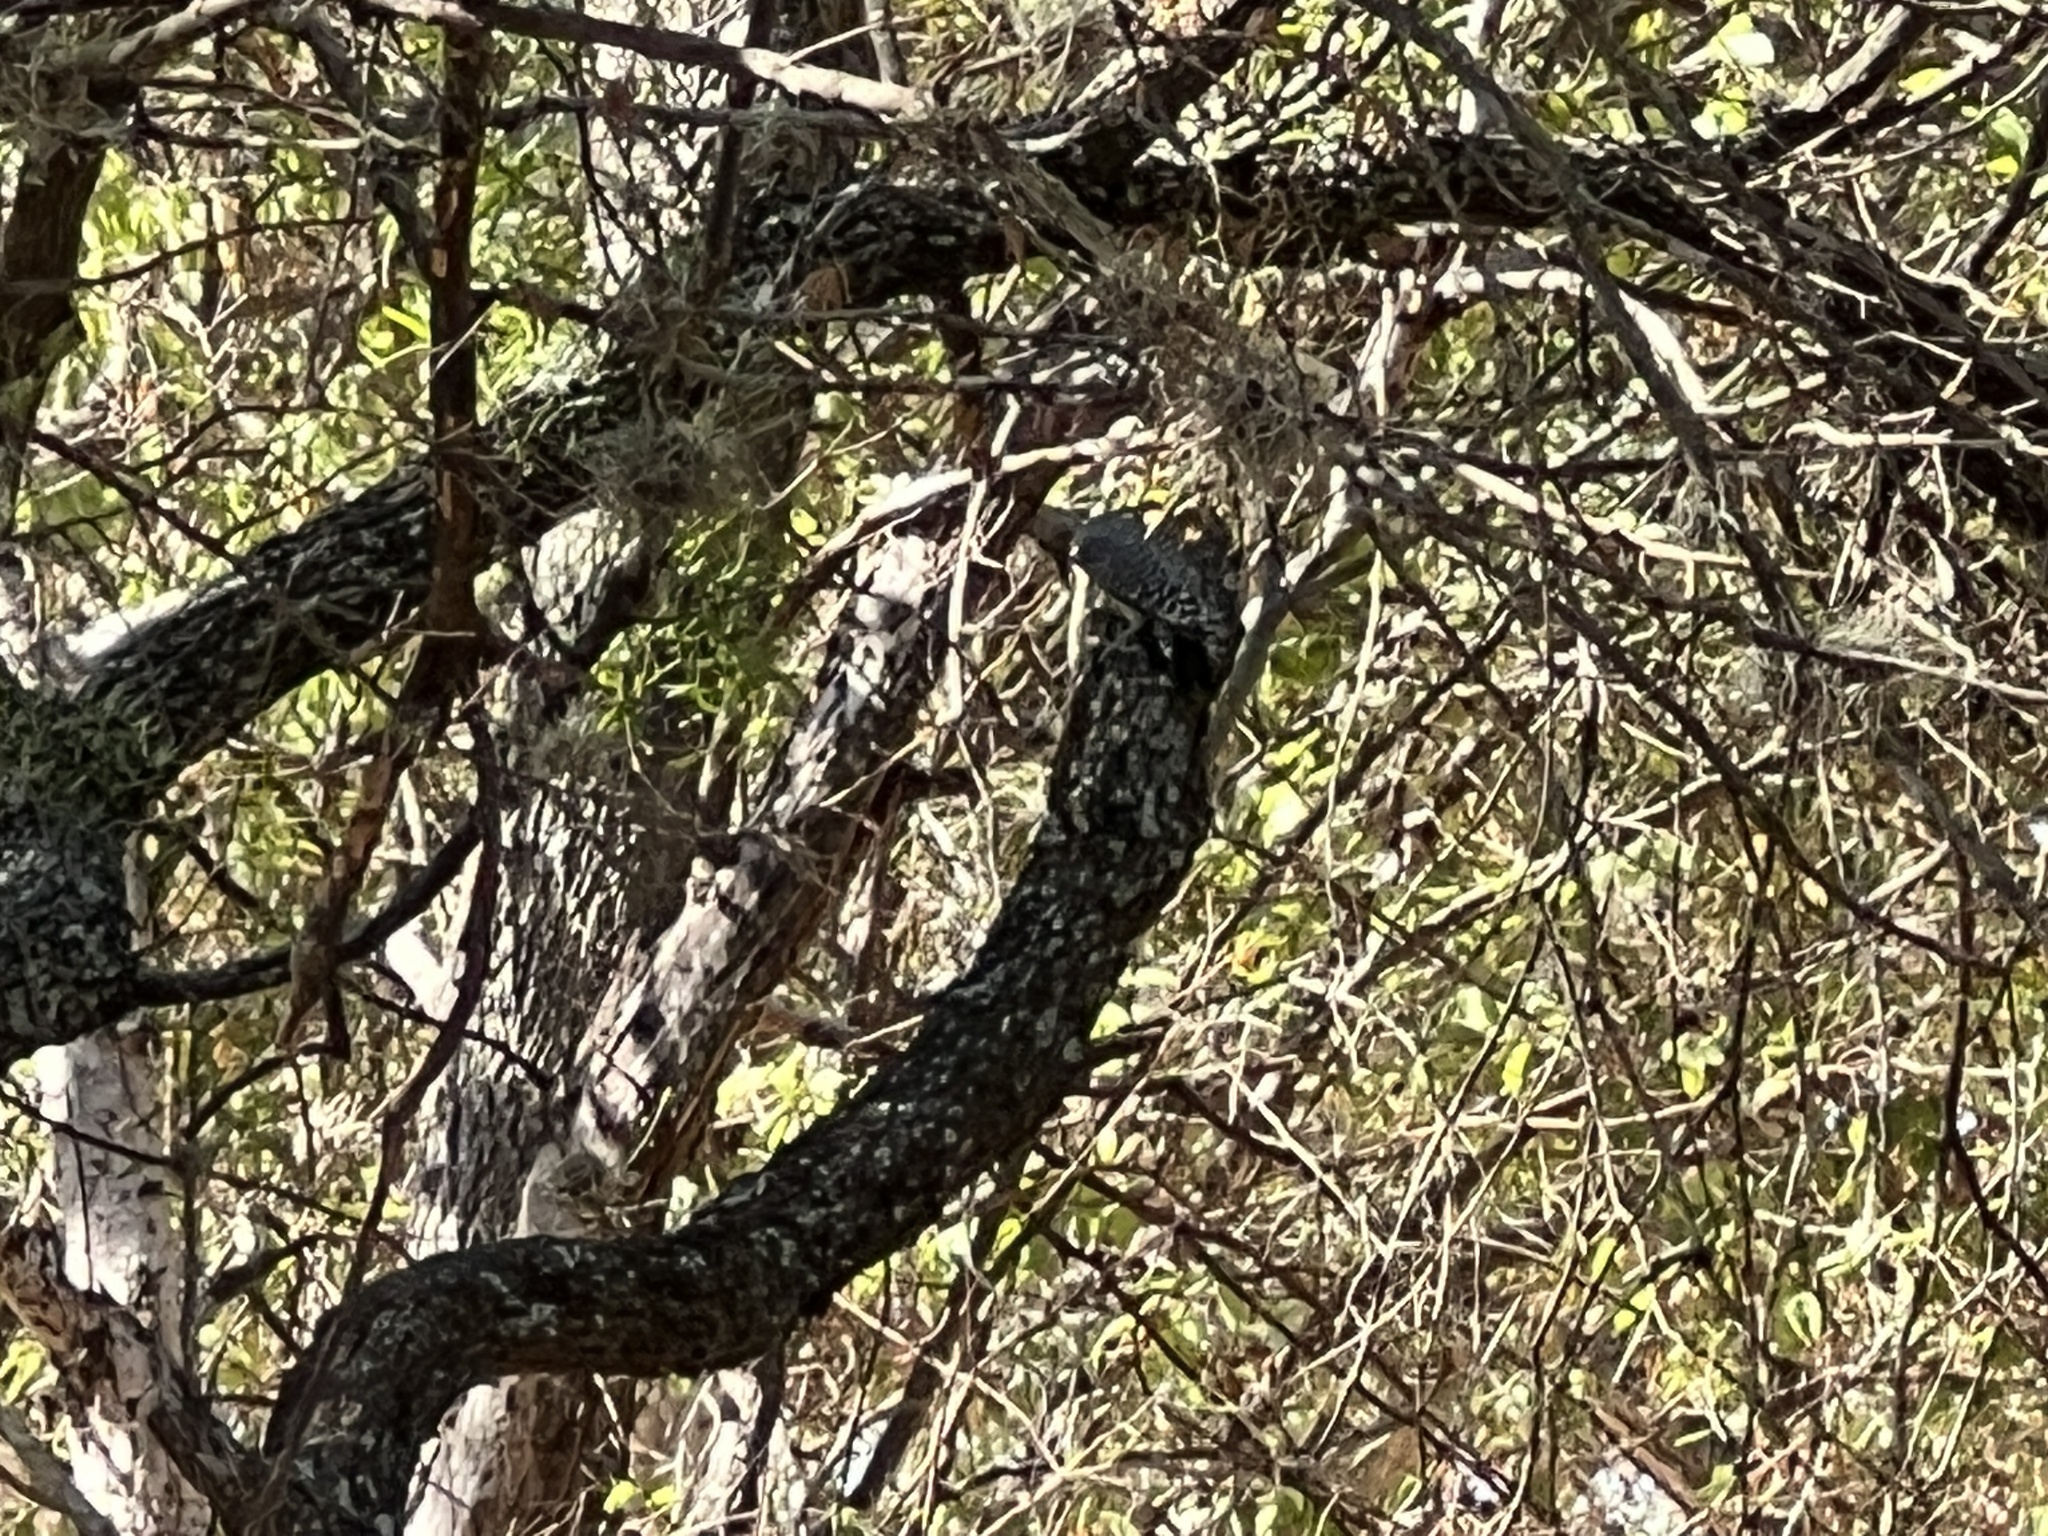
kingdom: Animalia
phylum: Chordata
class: Aves
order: Piciformes
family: Picidae
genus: Melanerpes
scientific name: Melanerpes aurifrons
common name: Golden-fronted woodpecker
